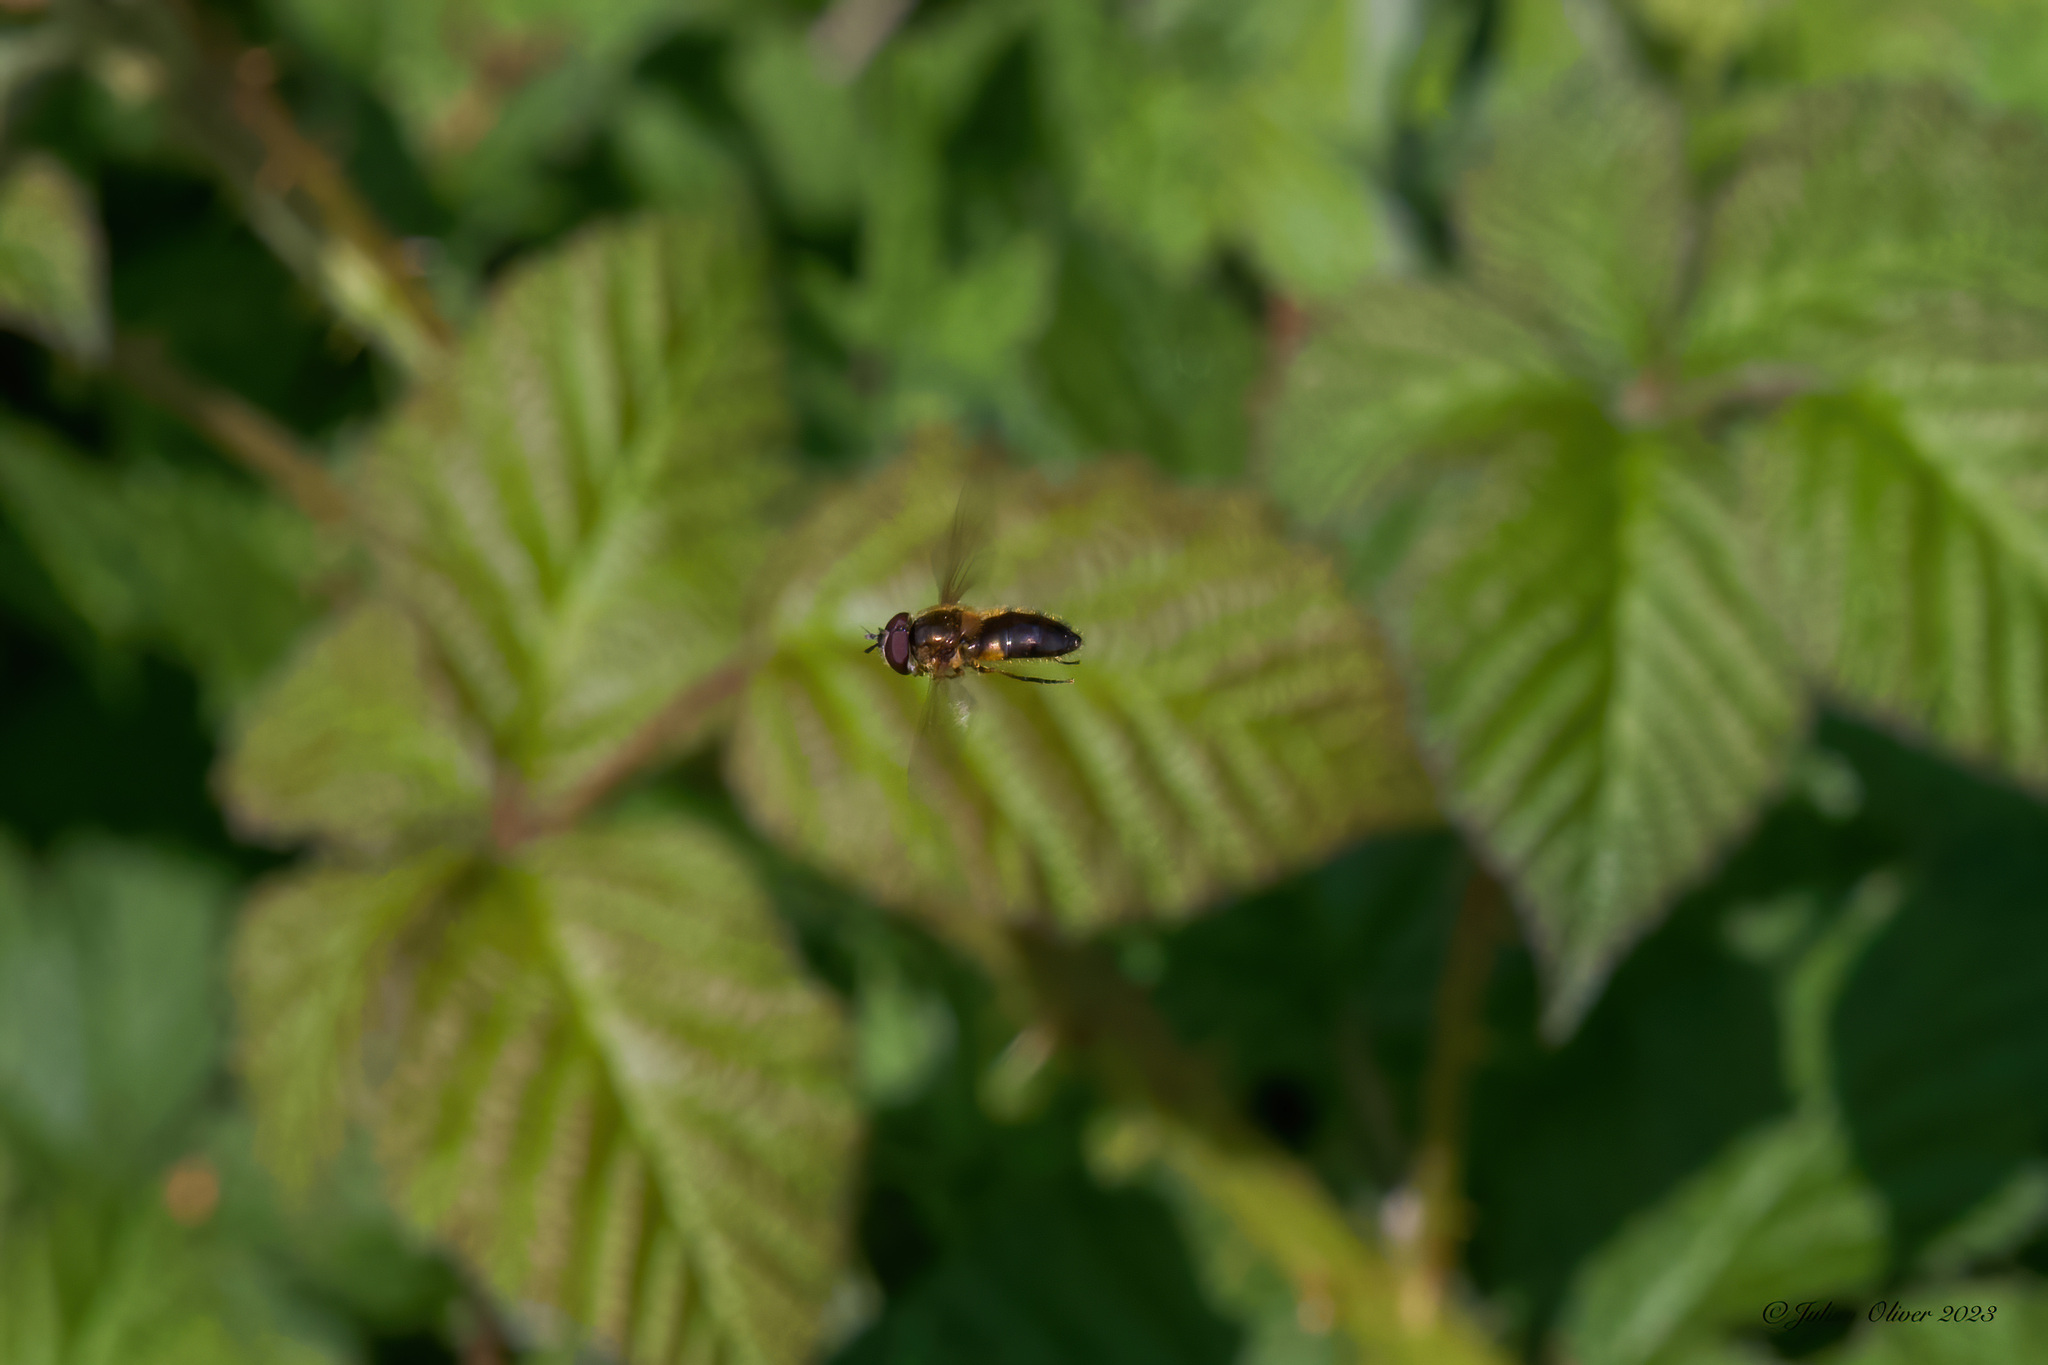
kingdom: Animalia
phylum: Arthropoda
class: Insecta
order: Diptera
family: Syrphidae
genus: Epistrophe
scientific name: Epistrophe eligans
